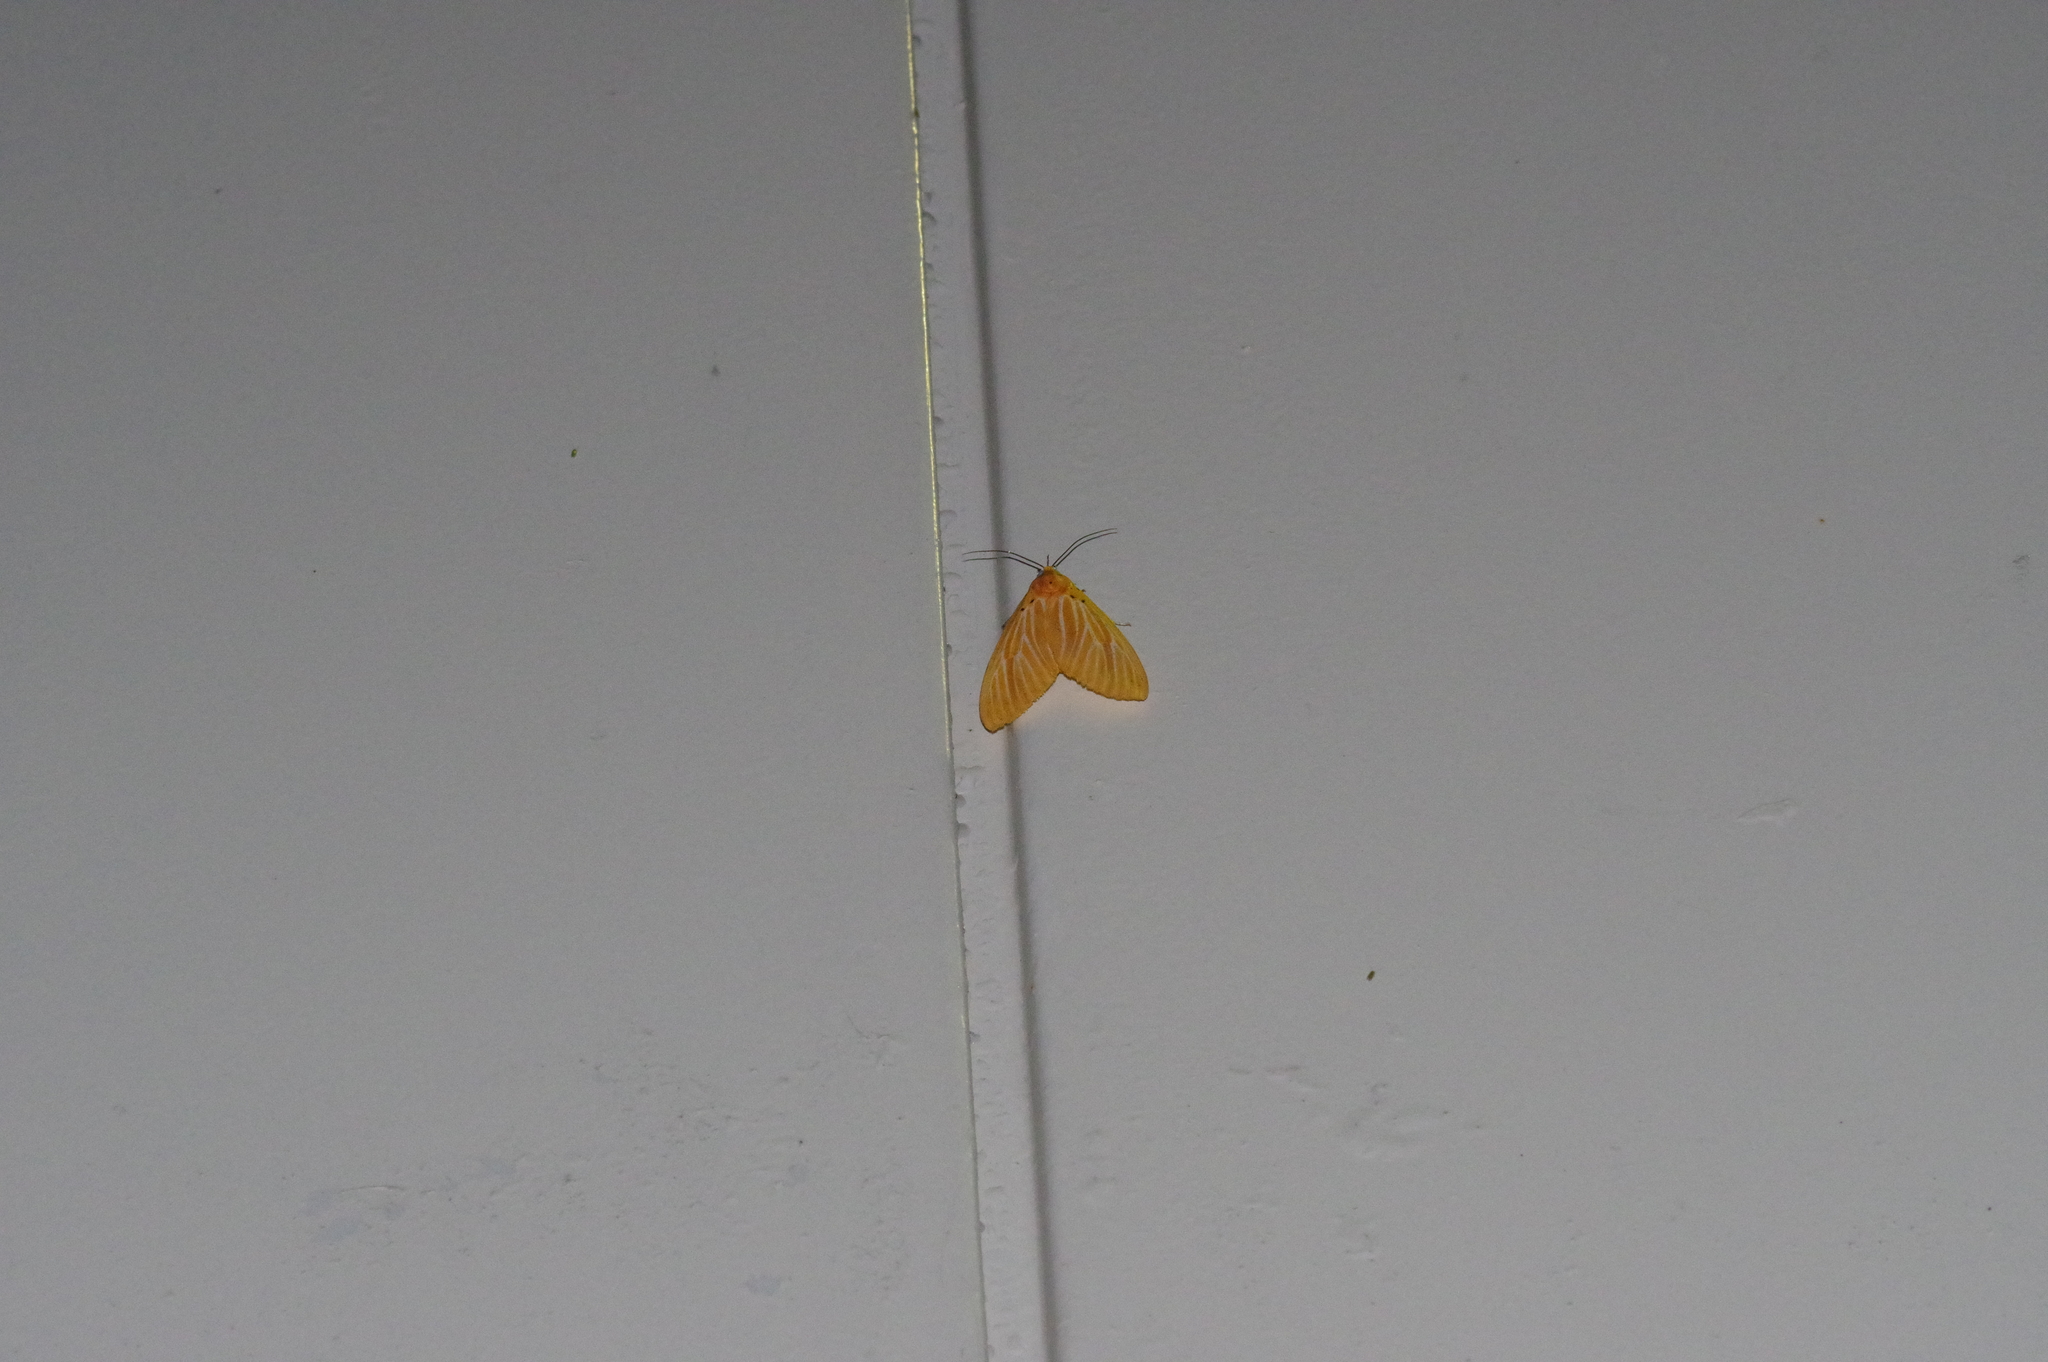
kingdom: Animalia
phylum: Arthropoda
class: Insecta
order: Lepidoptera
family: Erebidae
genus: Asota
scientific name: Asota egens
